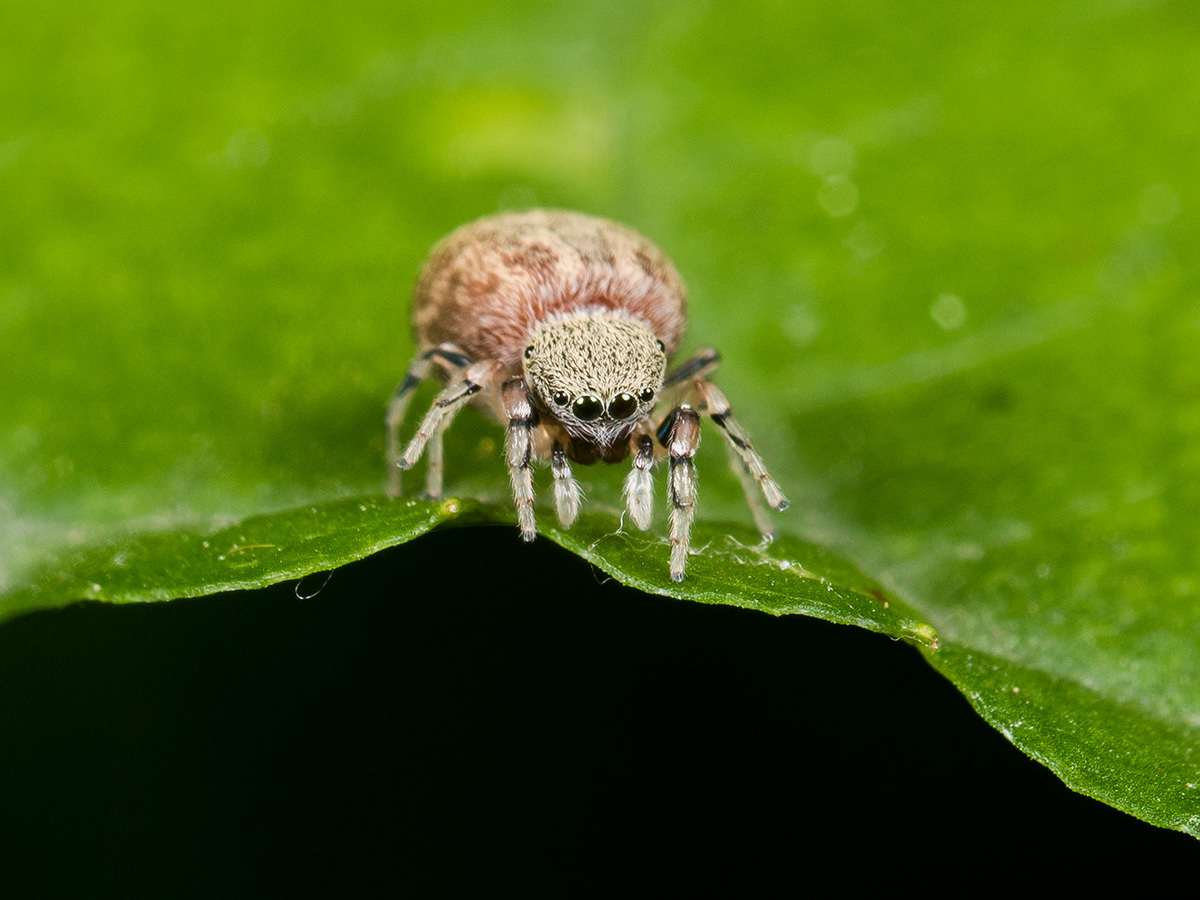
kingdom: Animalia
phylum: Arthropoda
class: Arachnida
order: Araneae
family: Salticidae
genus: Ballus
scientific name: Ballus chalybeius
